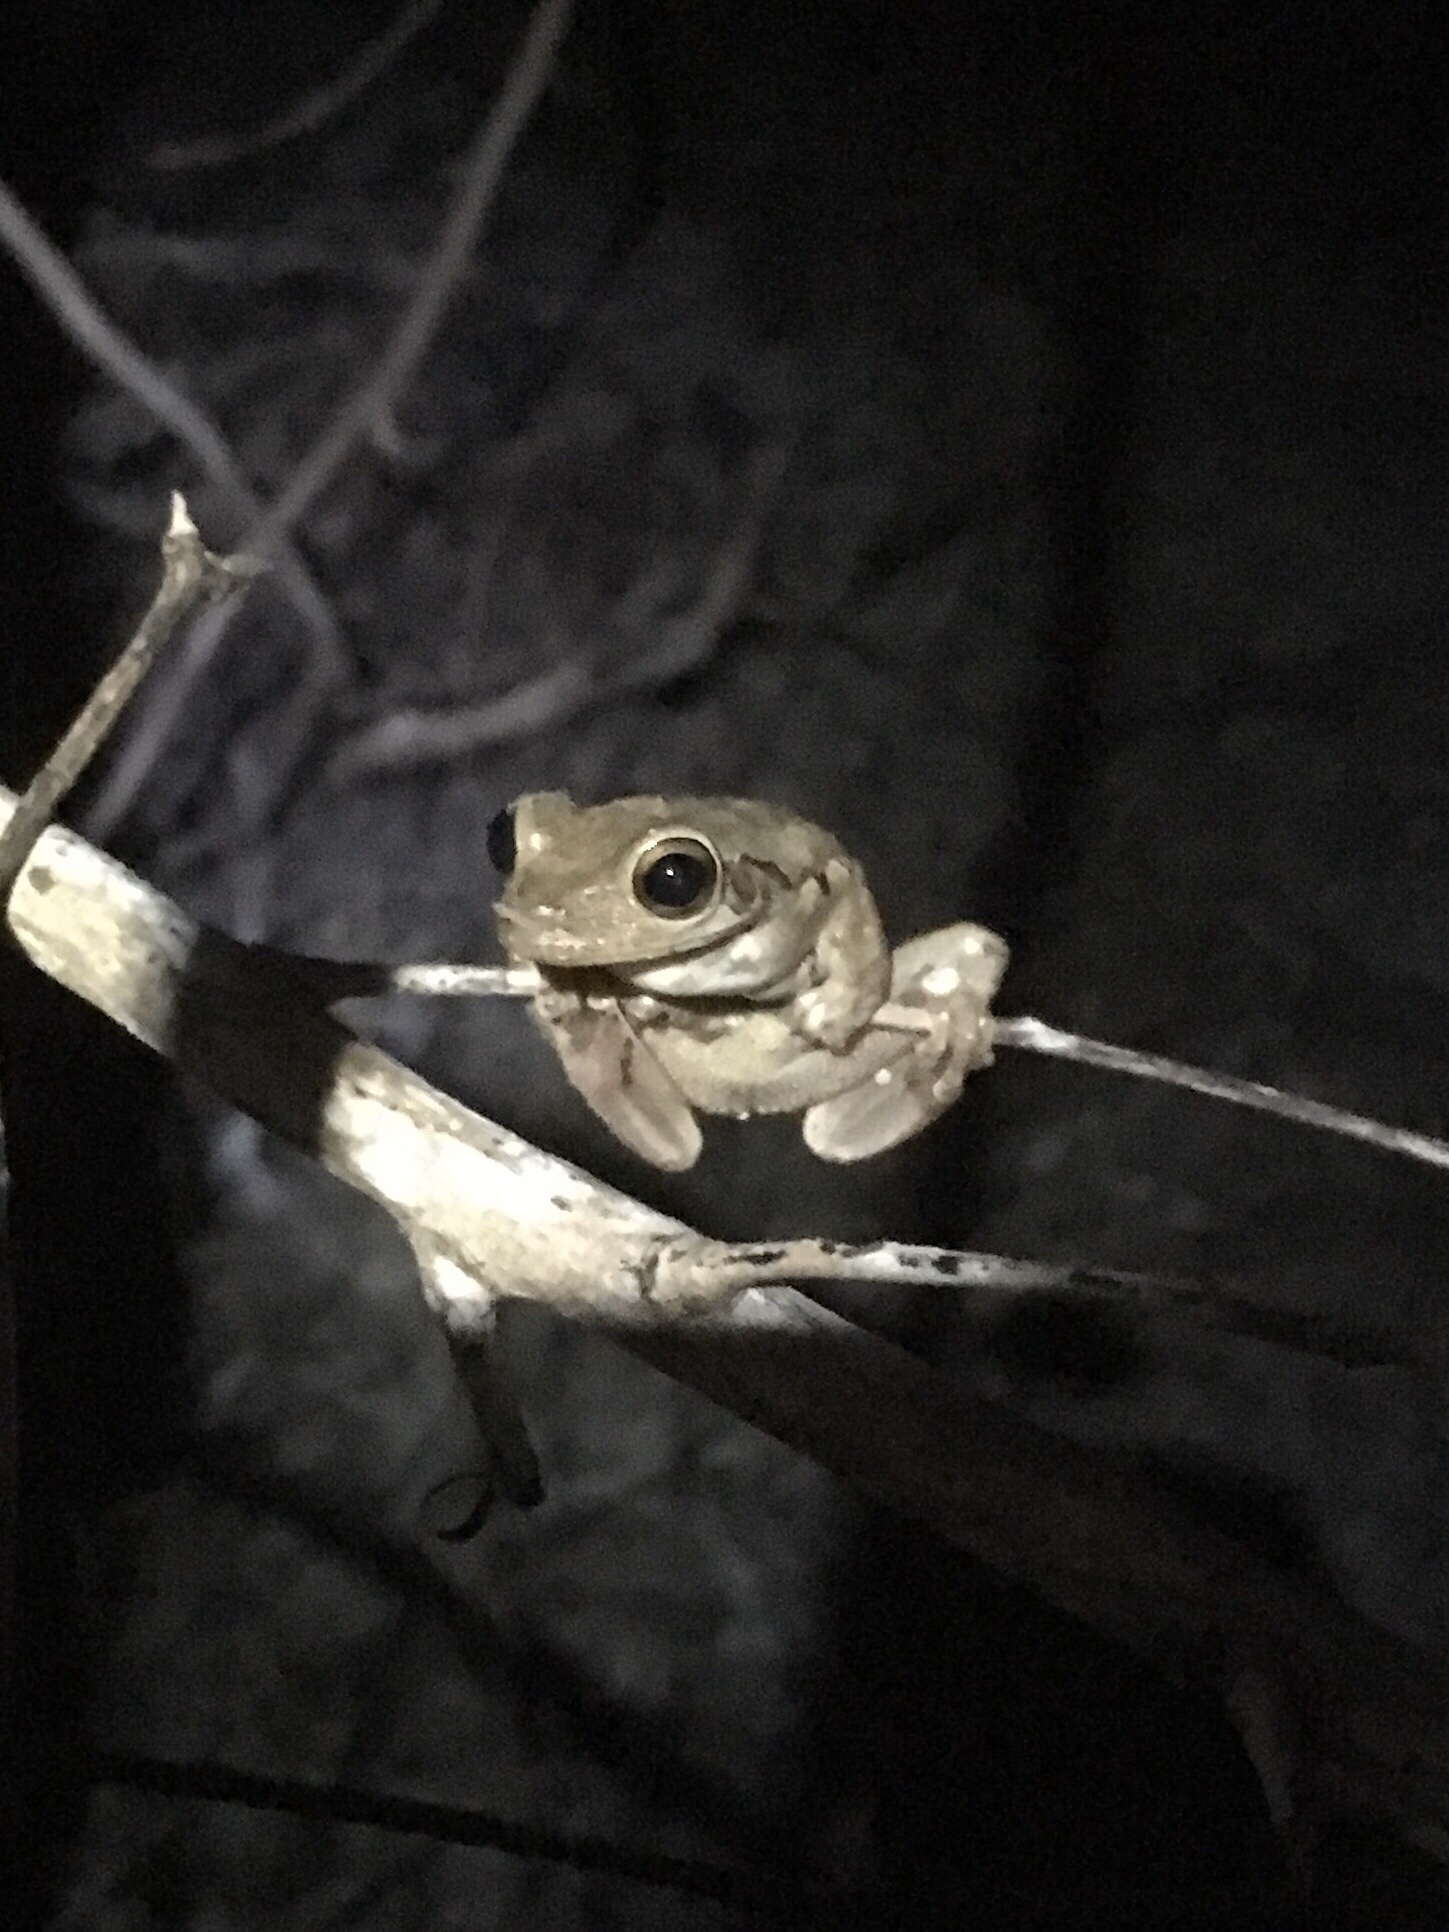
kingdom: Animalia
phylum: Chordata
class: Amphibia
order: Anura
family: Hylidae
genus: Osteopilus
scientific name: Osteopilus septentrionalis
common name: Cuban treefrog
